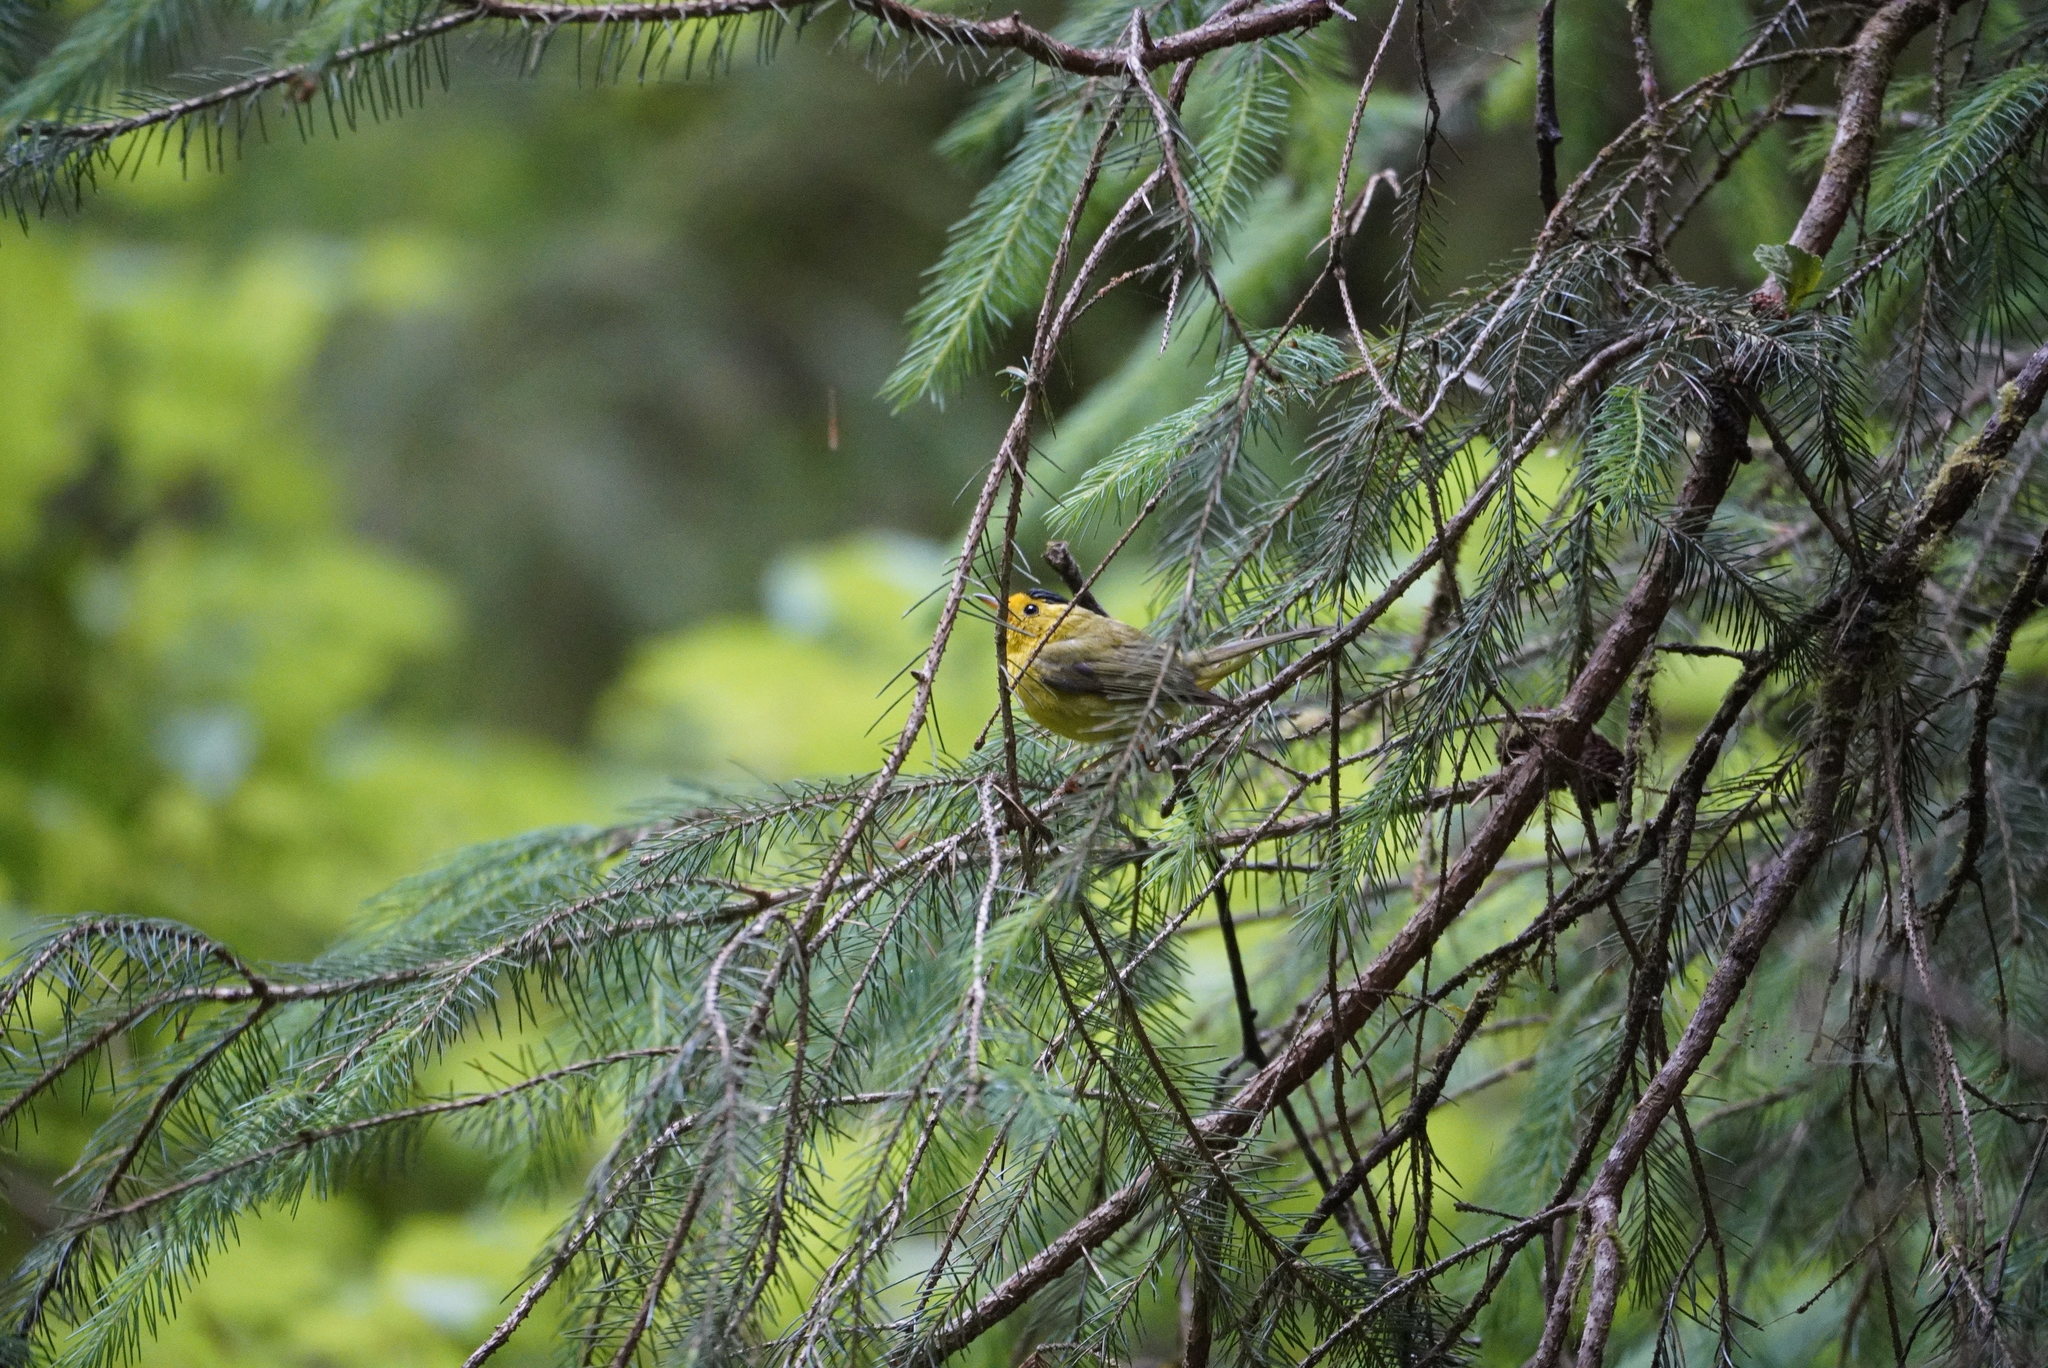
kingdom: Animalia
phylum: Chordata
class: Aves
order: Passeriformes
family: Parulidae
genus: Cardellina
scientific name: Cardellina pusilla
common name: Wilson's warbler
